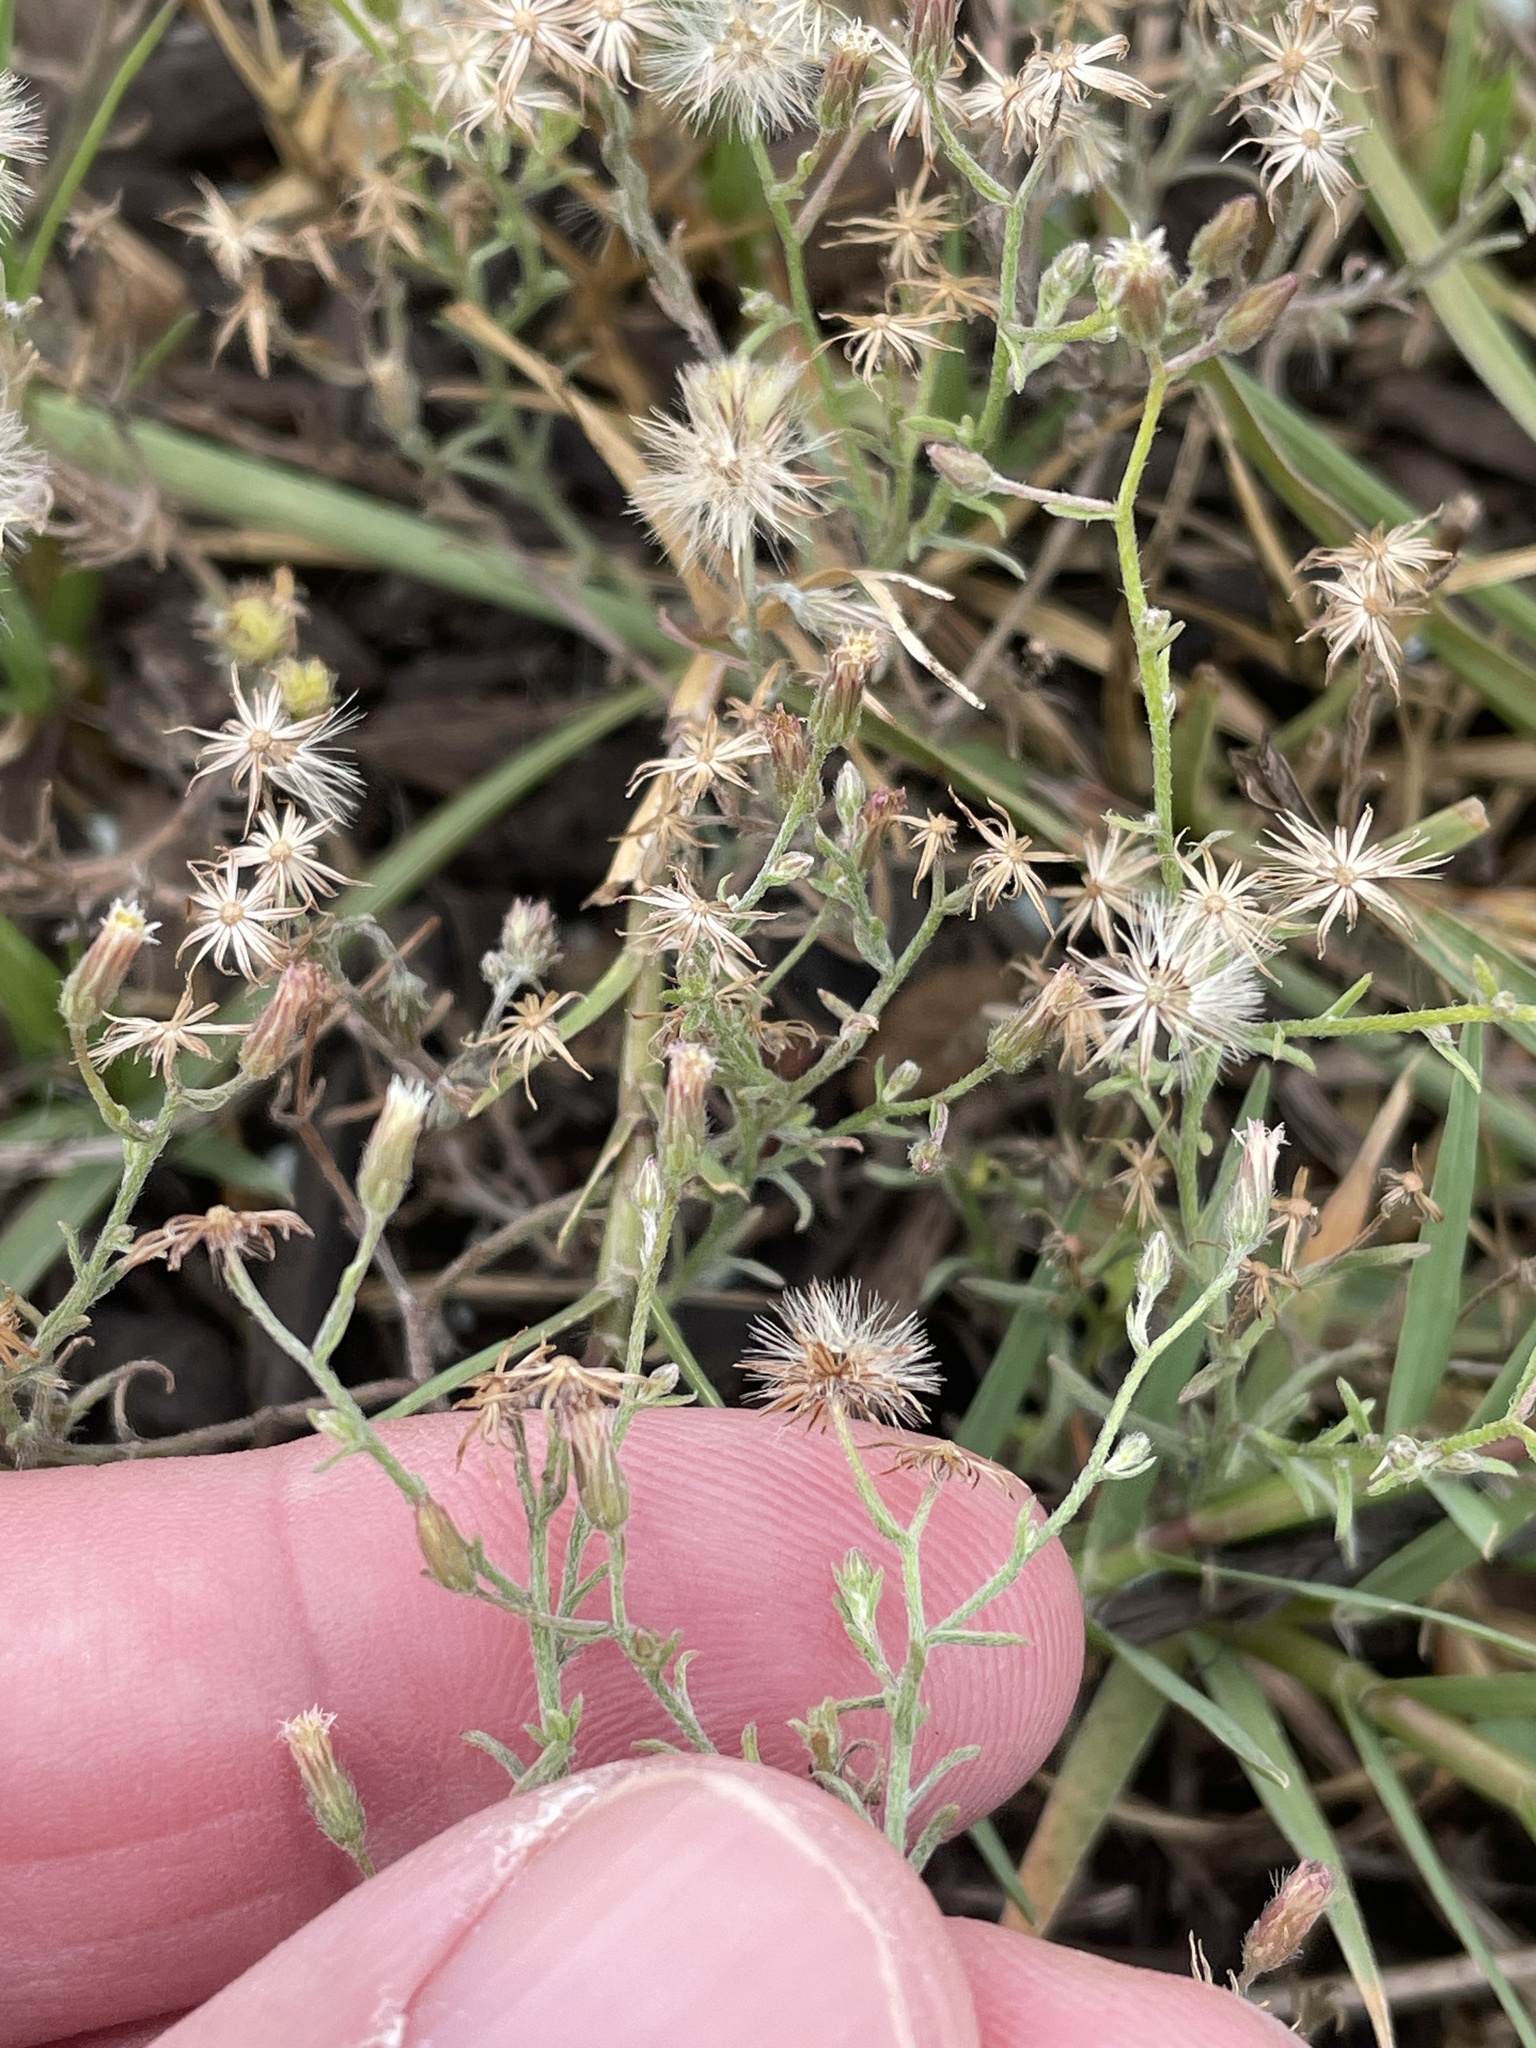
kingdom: Plantae
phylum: Tracheophyta
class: Magnoliopsida
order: Asterales
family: Asteraceae
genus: Erigeron
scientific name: Erigeron divaricatus
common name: Dwarf conyza
